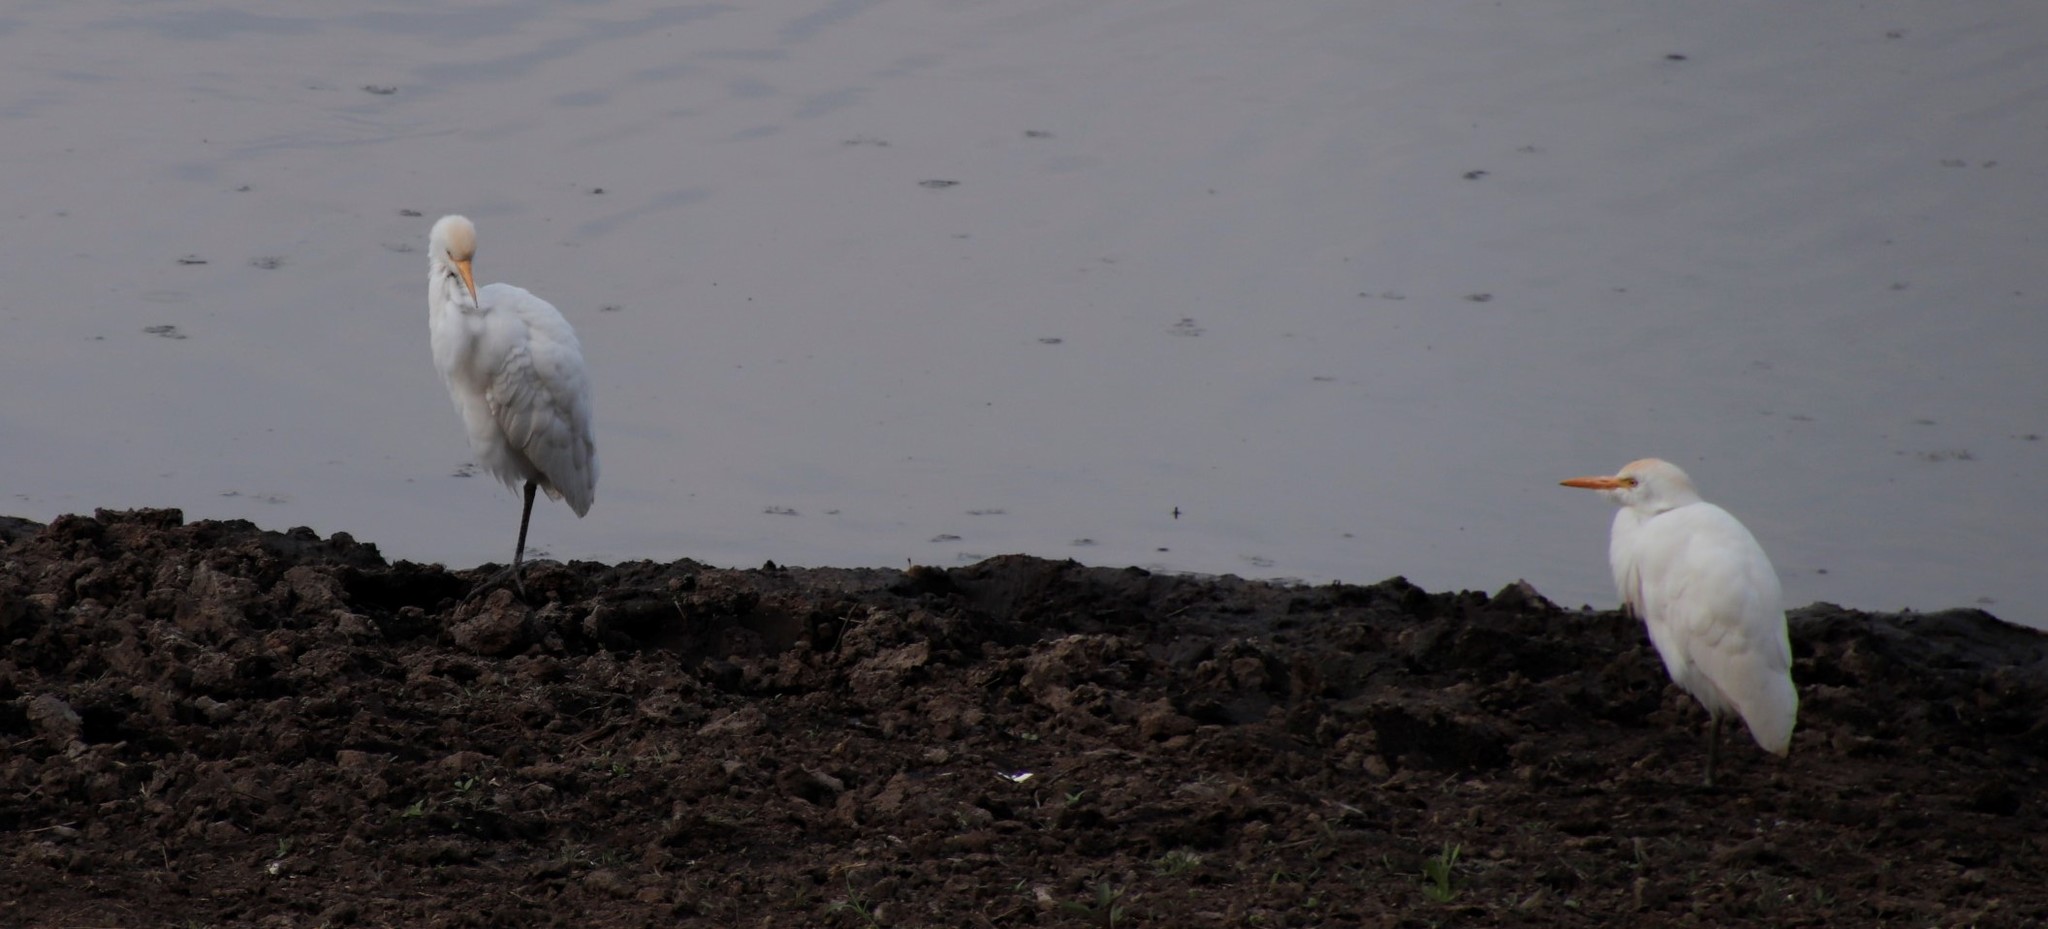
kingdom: Animalia
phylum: Chordata
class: Aves
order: Pelecaniformes
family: Ardeidae
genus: Bubulcus
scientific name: Bubulcus ibis
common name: Cattle egret
